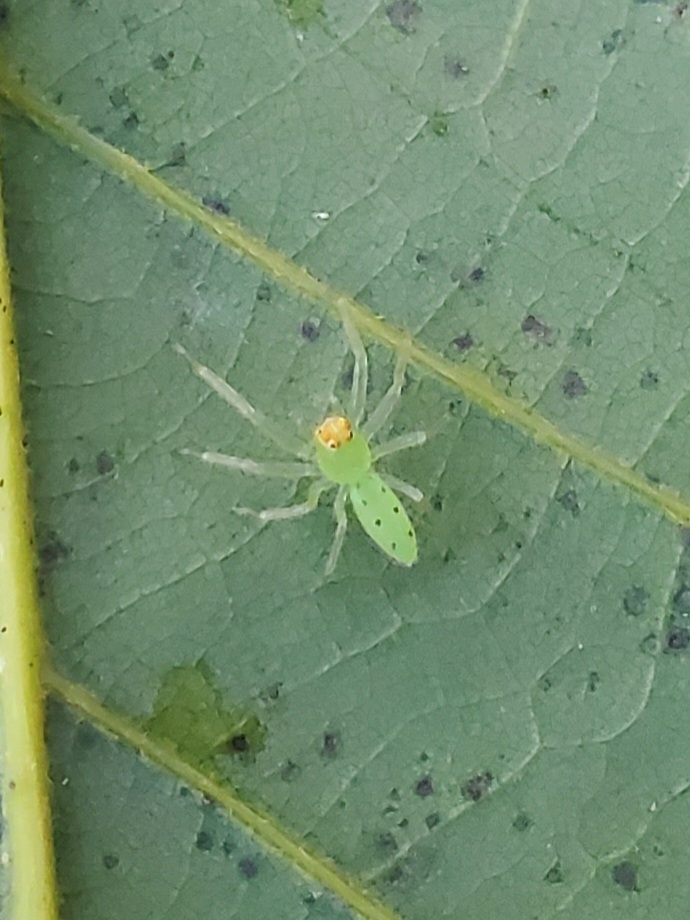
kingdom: Animalia
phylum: Arthropoda
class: Arachnida
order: Araneae
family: Salticidae
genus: Lyssomanes
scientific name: Lyssomanes viridis
